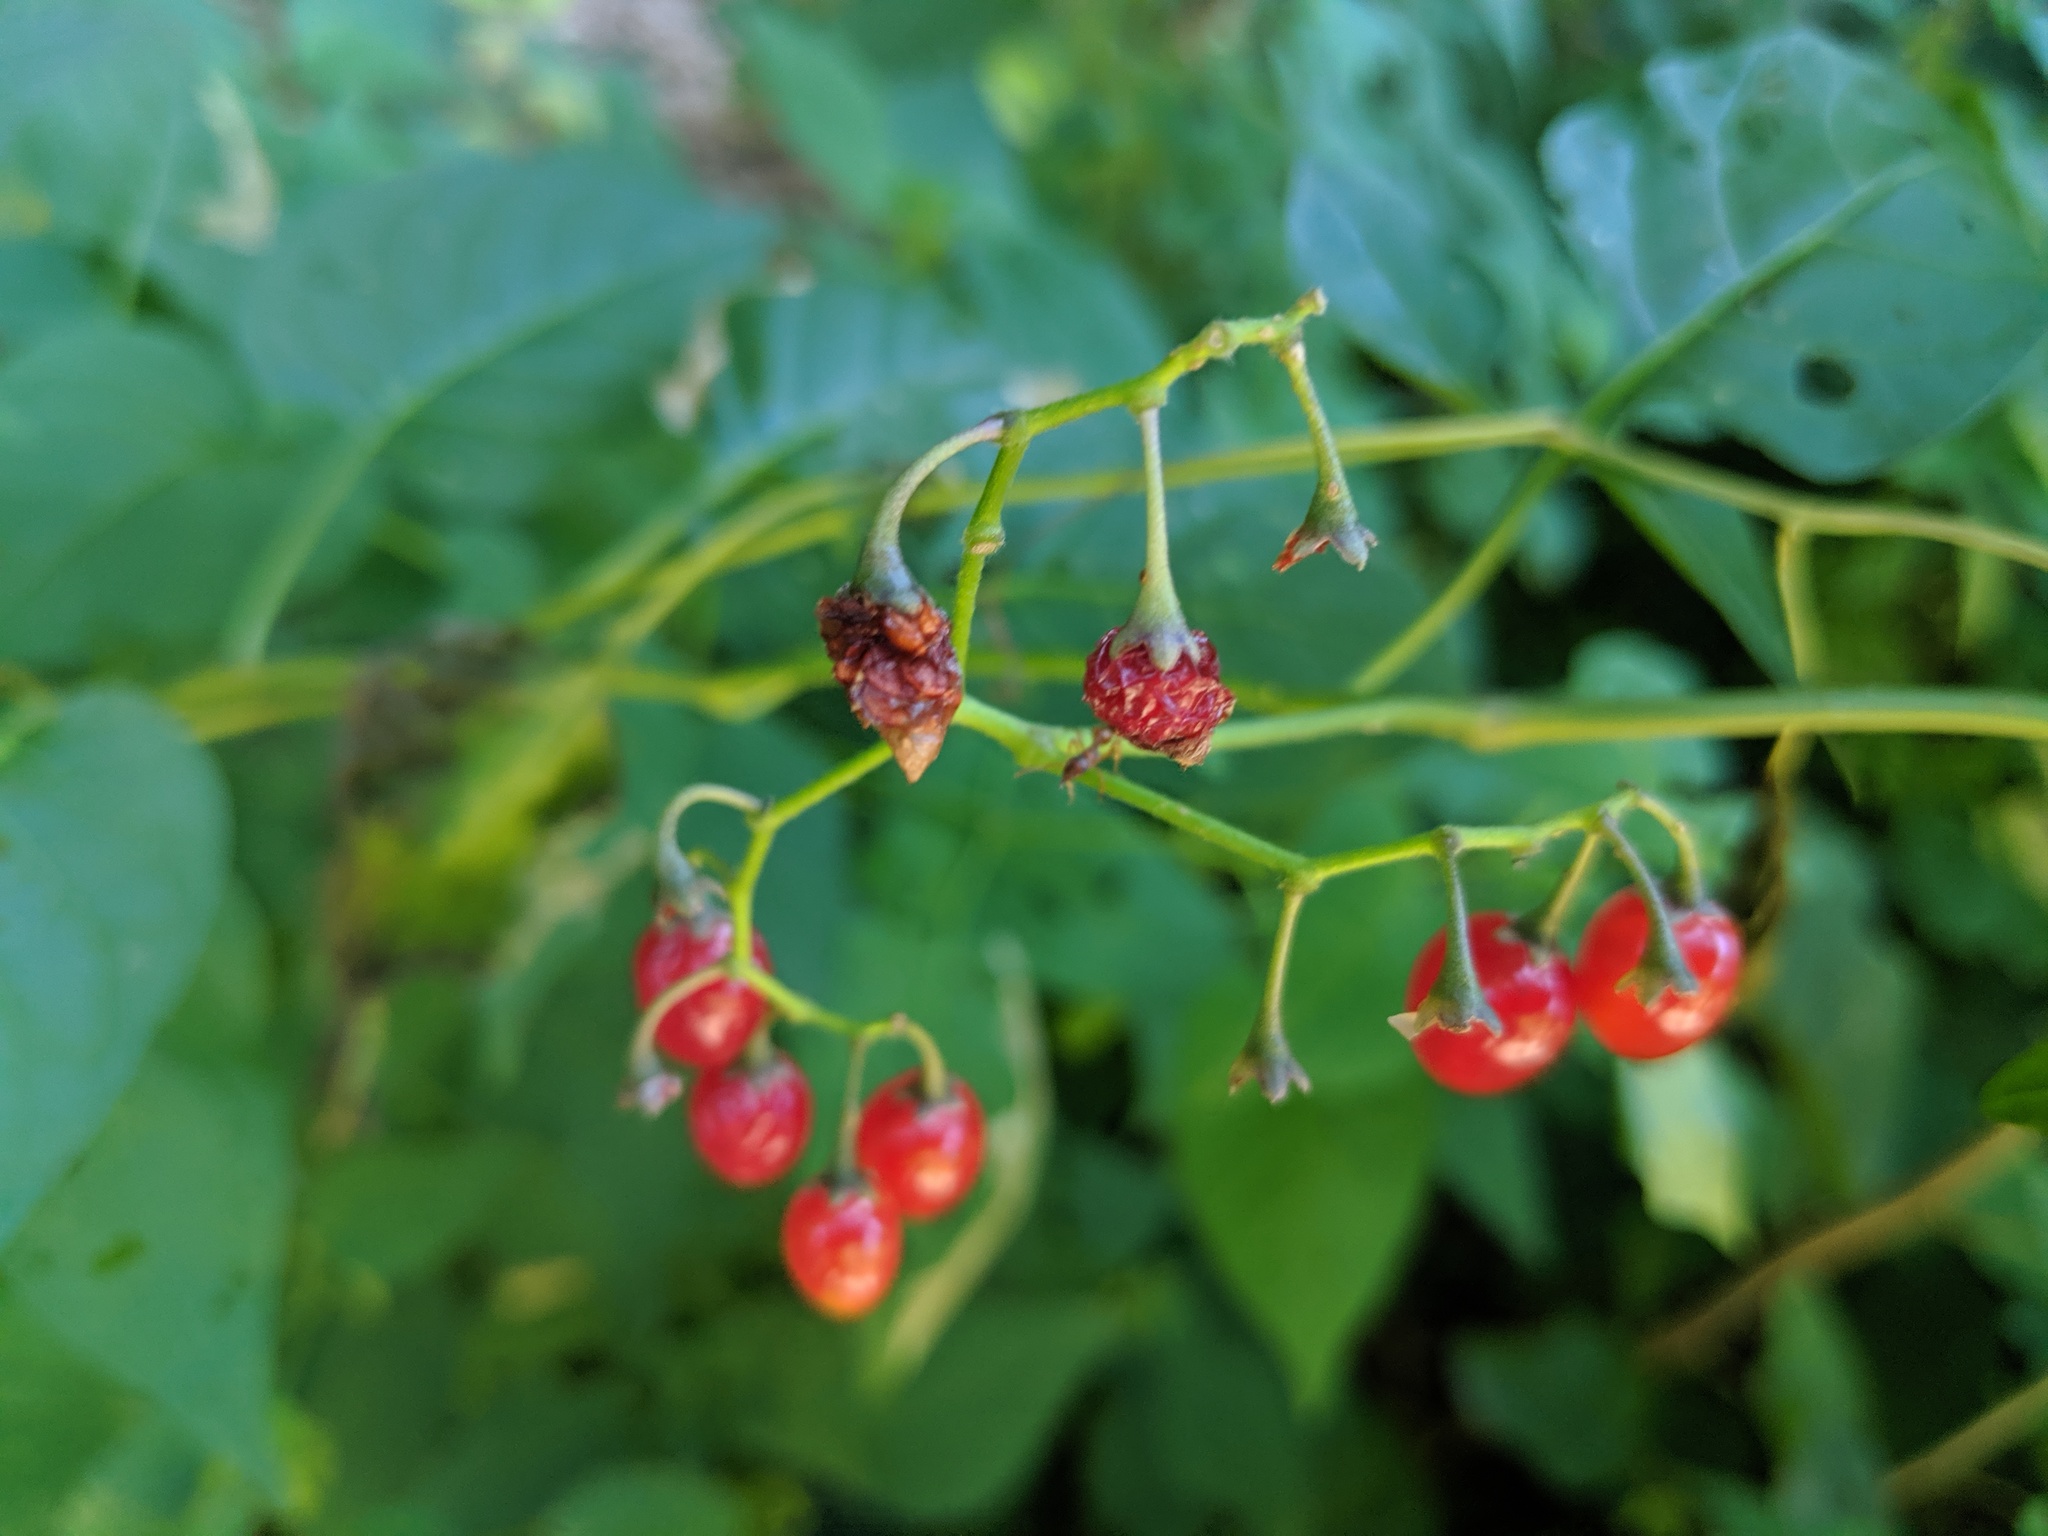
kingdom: Plantae
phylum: Tracheophyta
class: Magnoliopsida
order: Solanales
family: Solanaceae
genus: Solanum
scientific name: Solanum dulcamara
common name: Climbing nightshade
